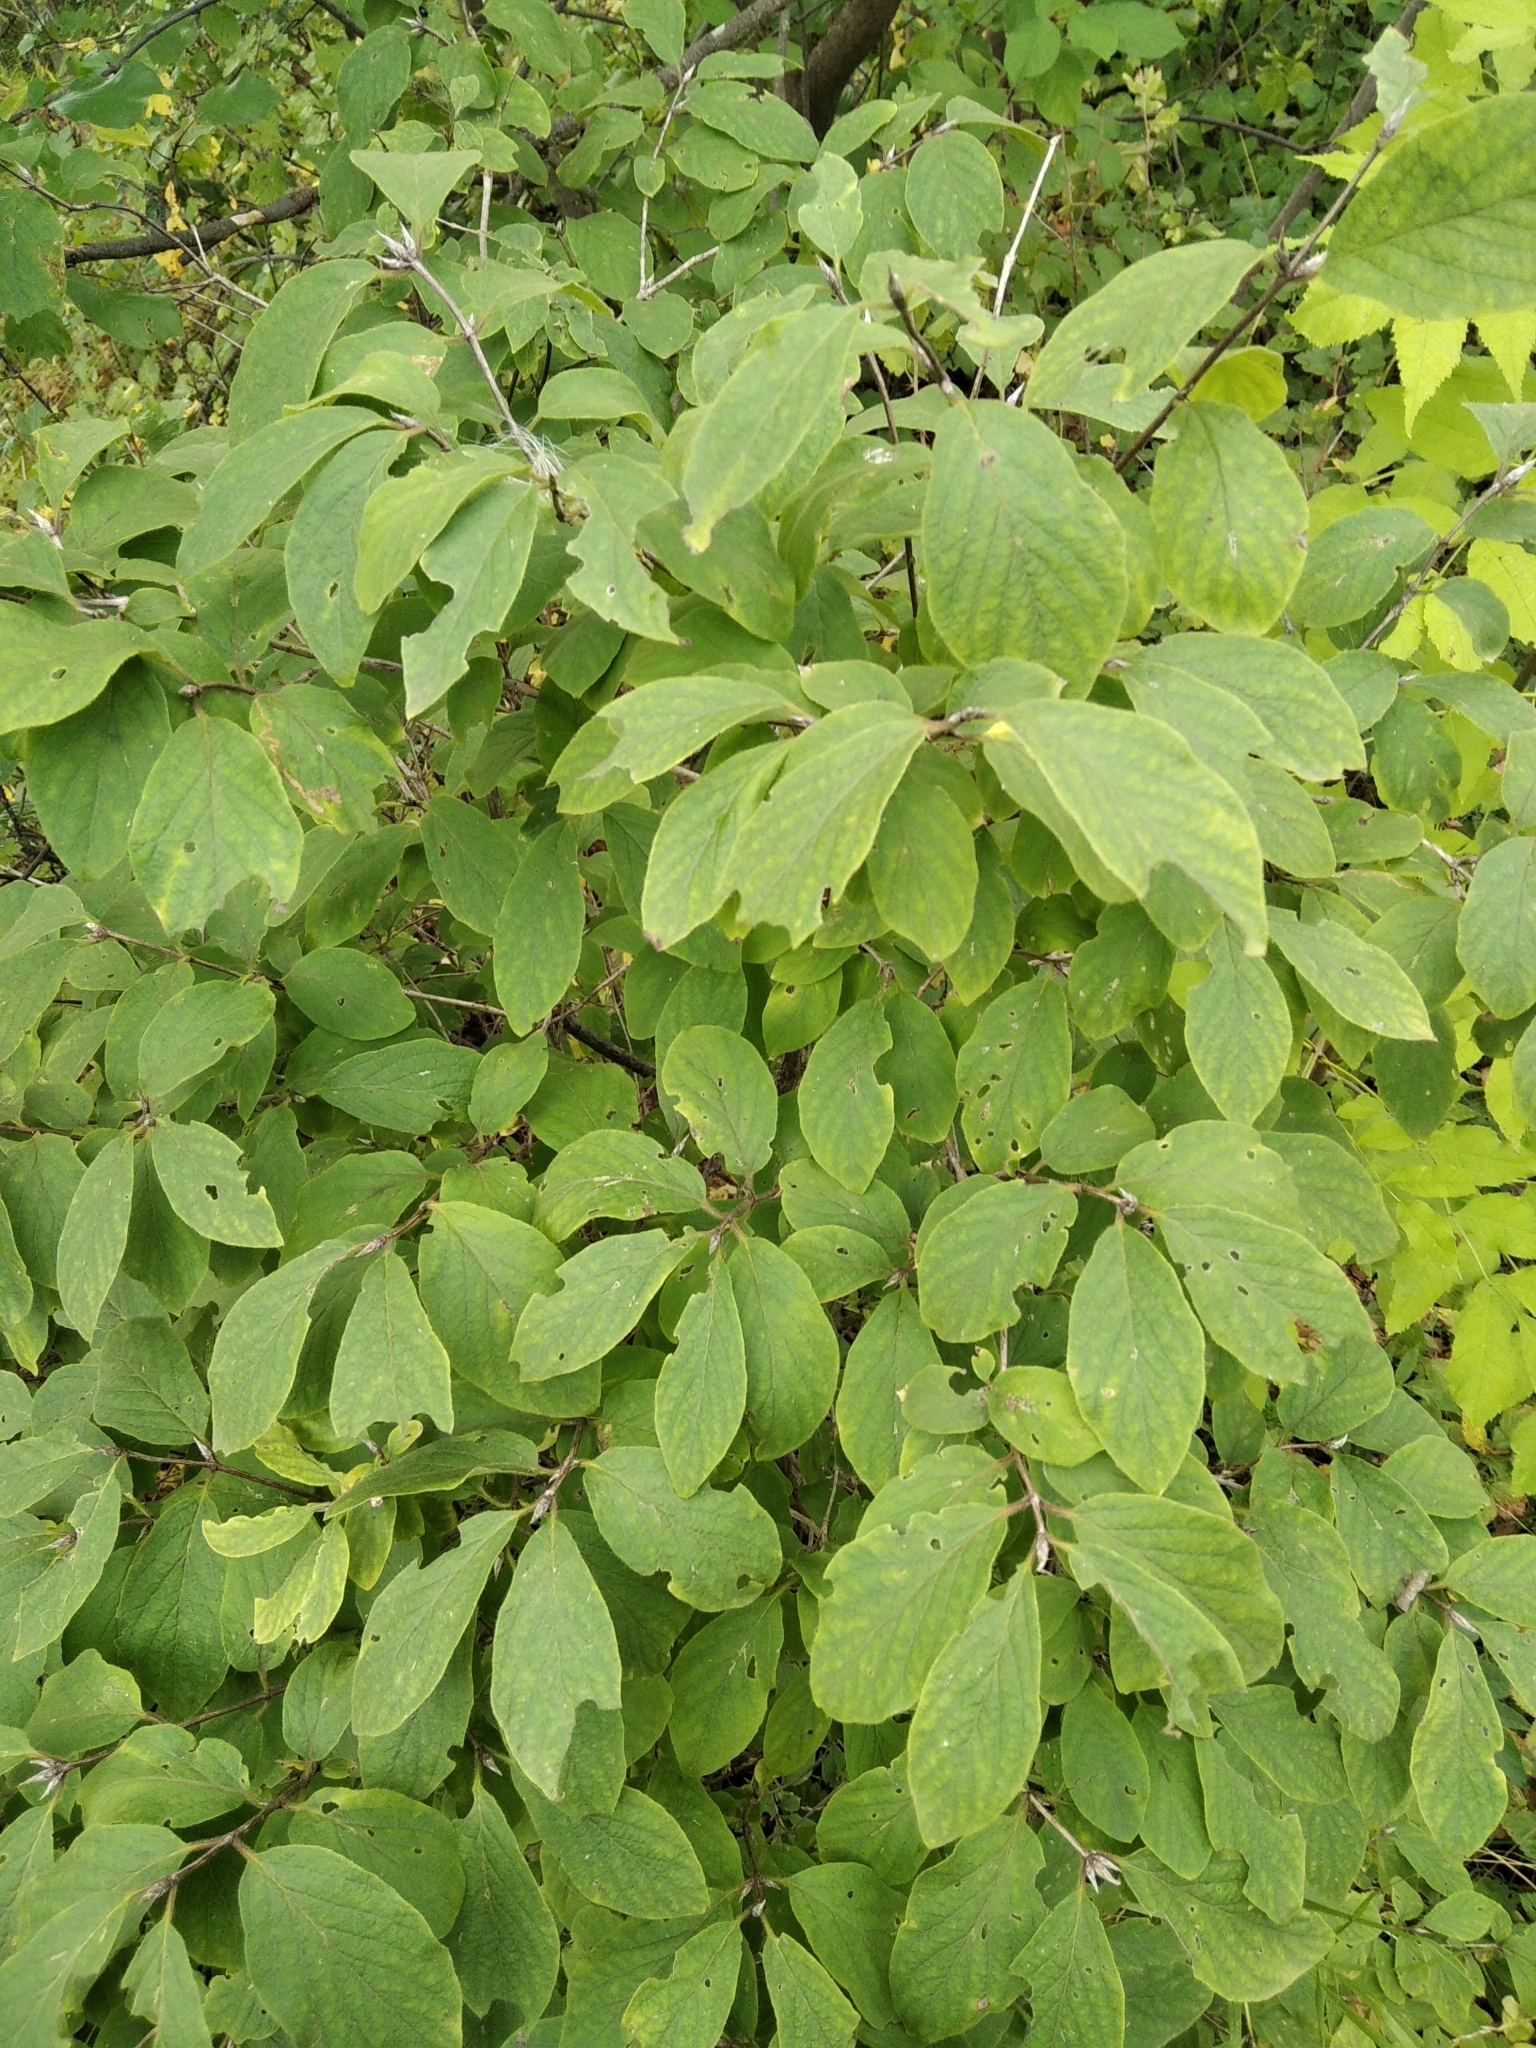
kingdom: Plantae
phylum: Tracheophyta
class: Magnoliopsida
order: Dipsacales
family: Caprifoliaceae
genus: Lonicera
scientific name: Lonicera xylosteum
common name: Fly honeysuckle
